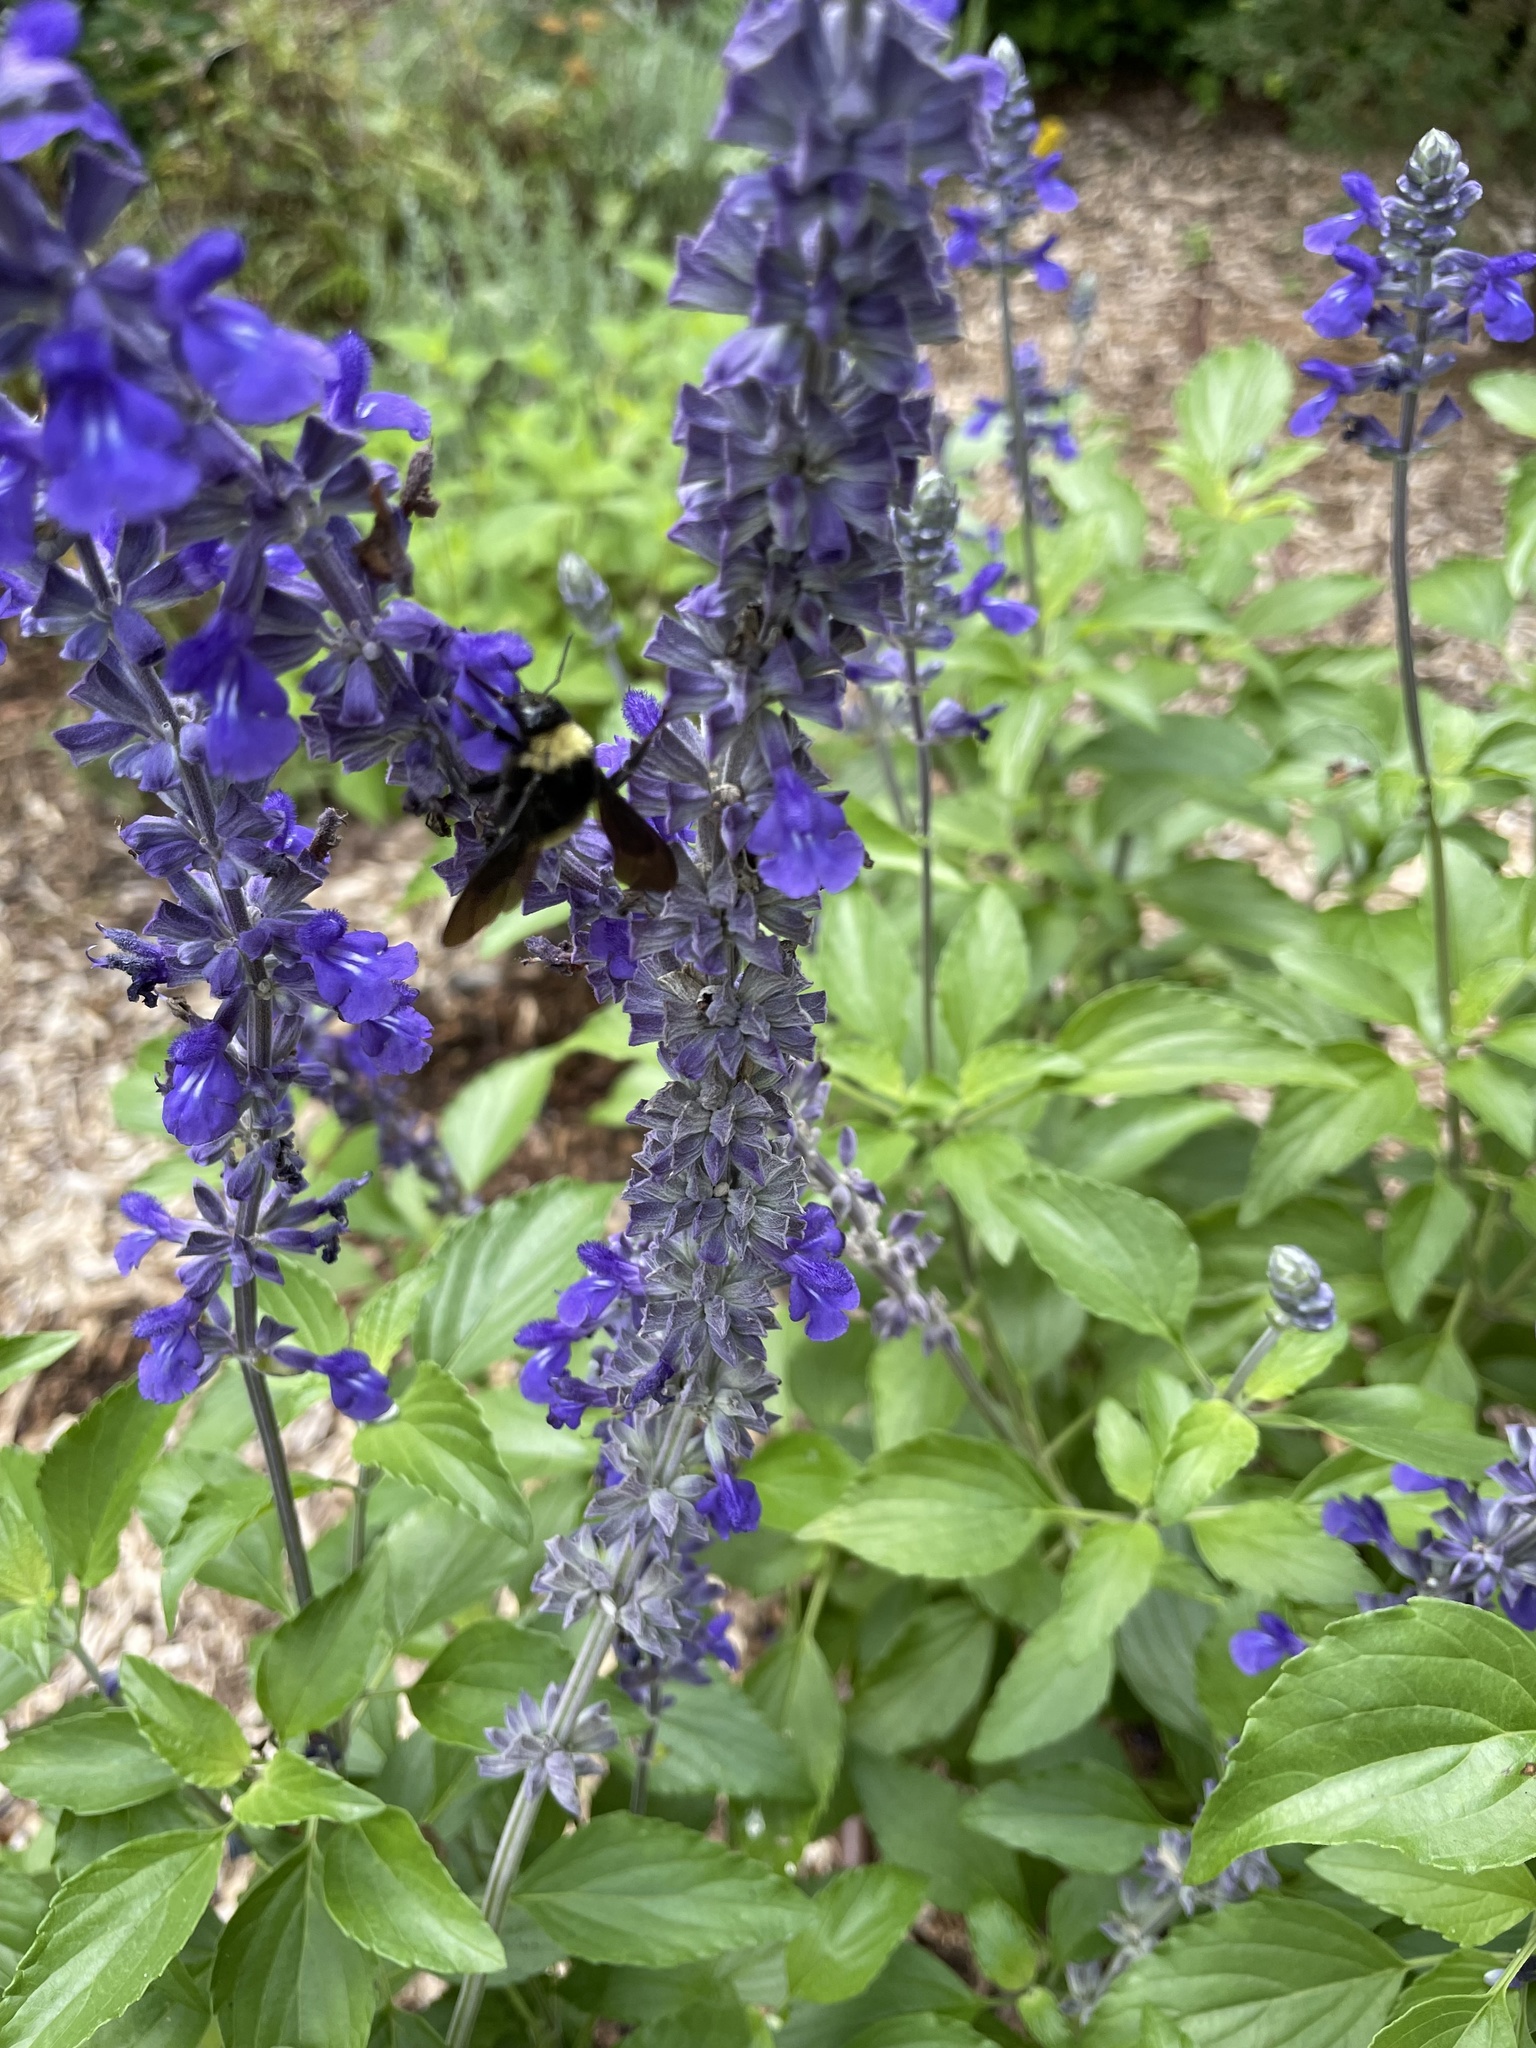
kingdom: Animalia
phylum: Arthropoda
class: Insecta
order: Hymenoptera
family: Apidae
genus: Bombus
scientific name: Bombus pensylvanicus
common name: Bumble bee
